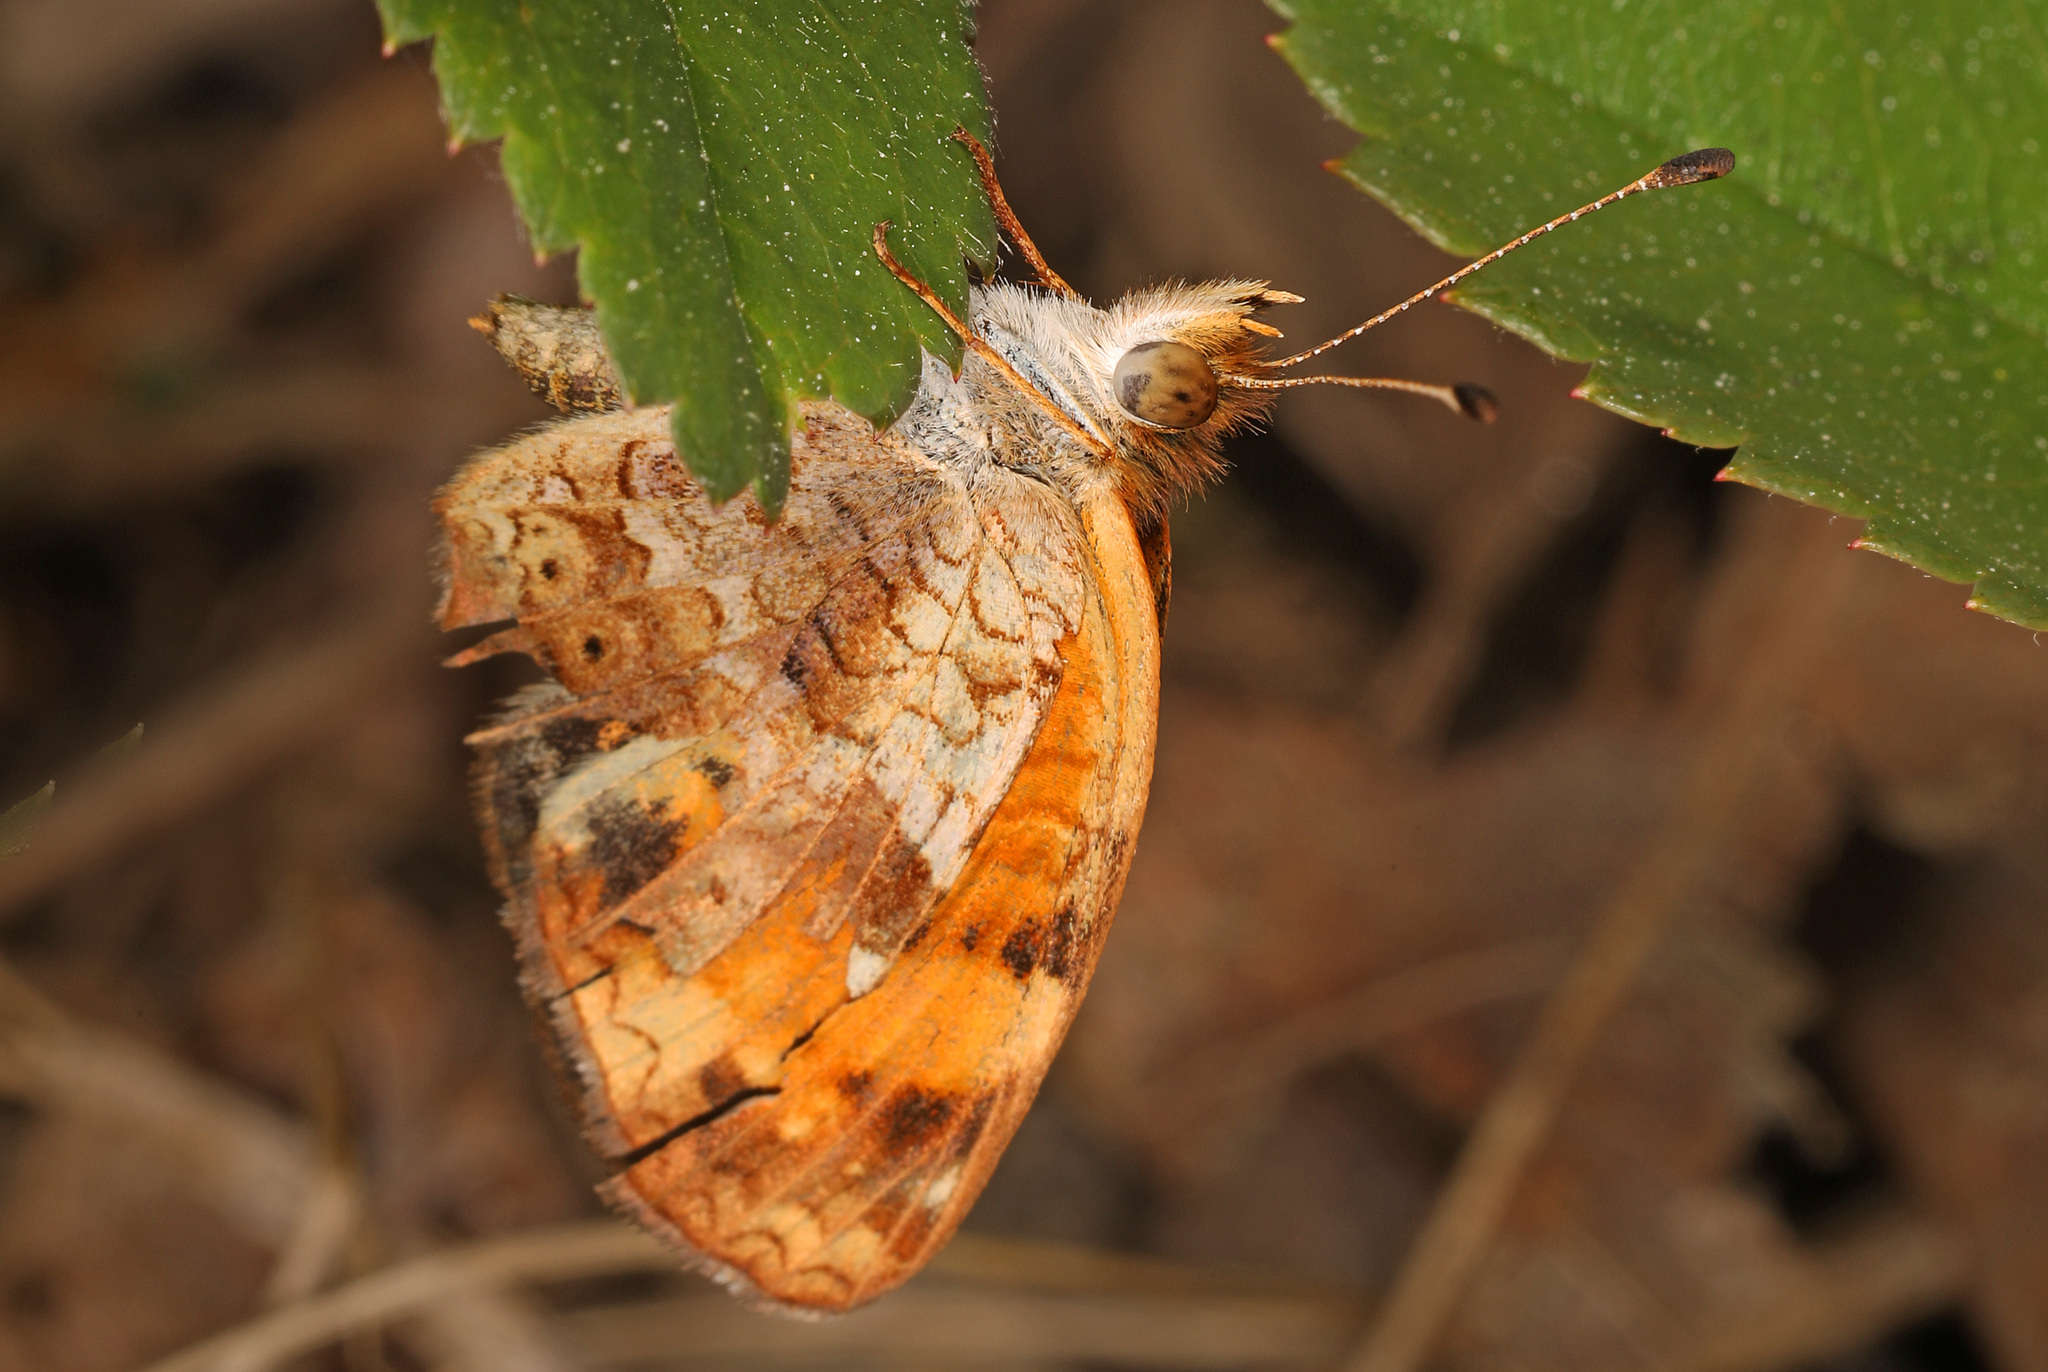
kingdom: Animalia
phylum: Arthropoda
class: Insecta
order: Lepidoptera
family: Nymphalidae
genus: Phyciodes
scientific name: Phyciodes tharos
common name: Pearl crescent
